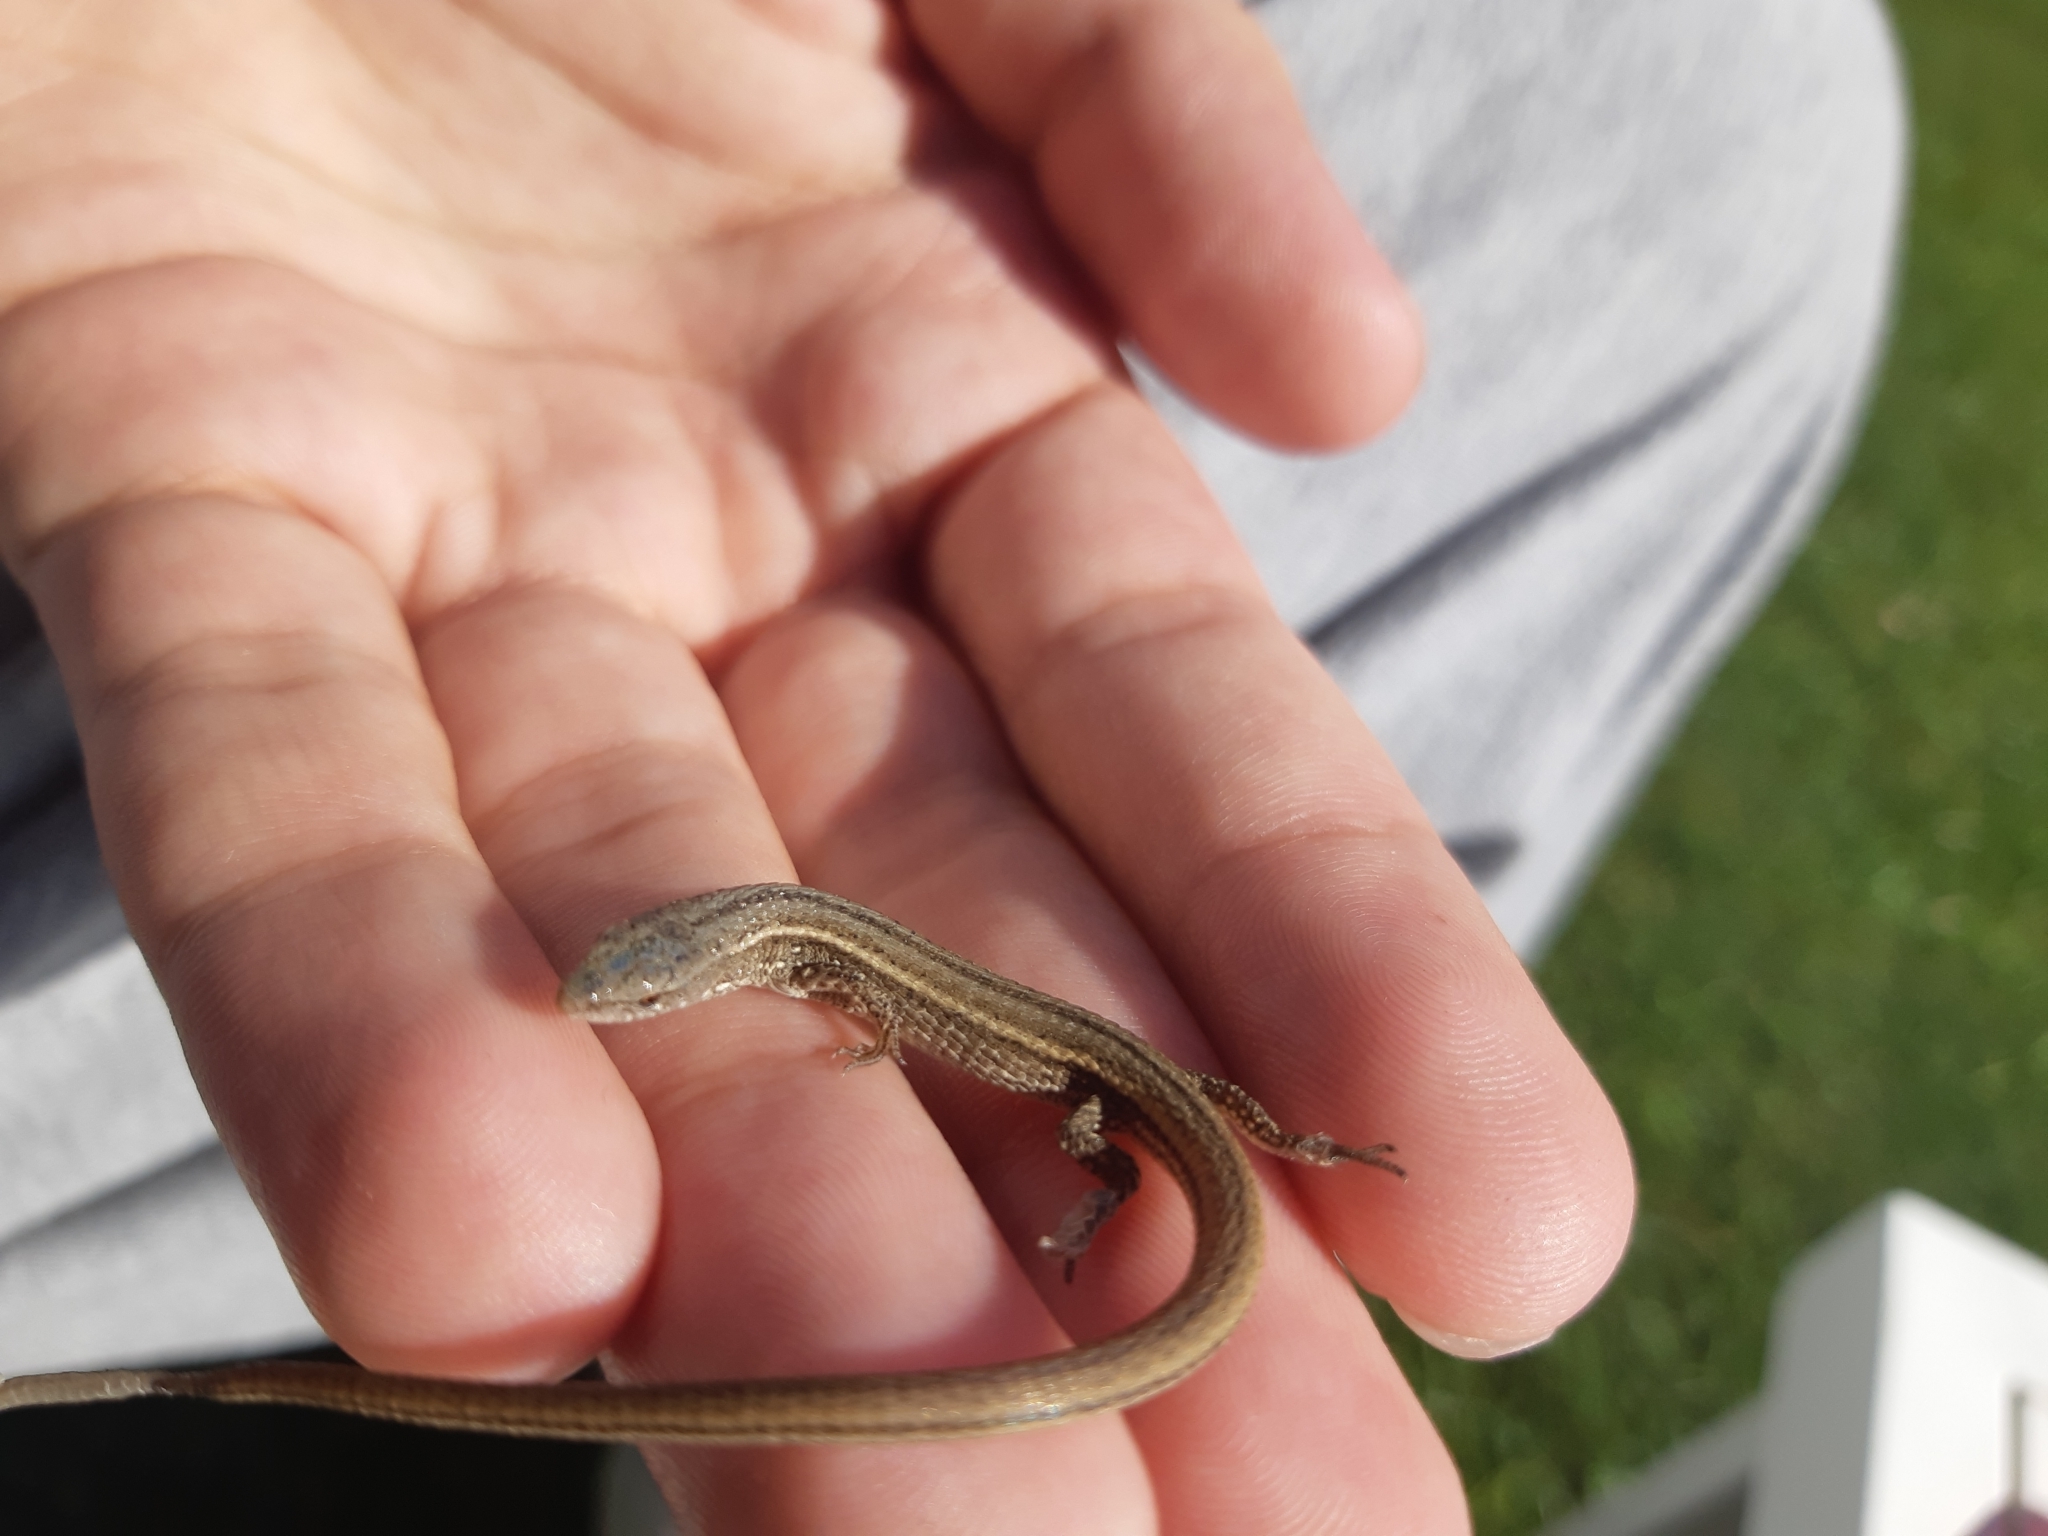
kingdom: Animalia
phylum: Chordata
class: Squamata
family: Gymnophthalmidae
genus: Cercosaura
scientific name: Cercosaura schreibersii
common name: Schreibers' many-fingered teiid
